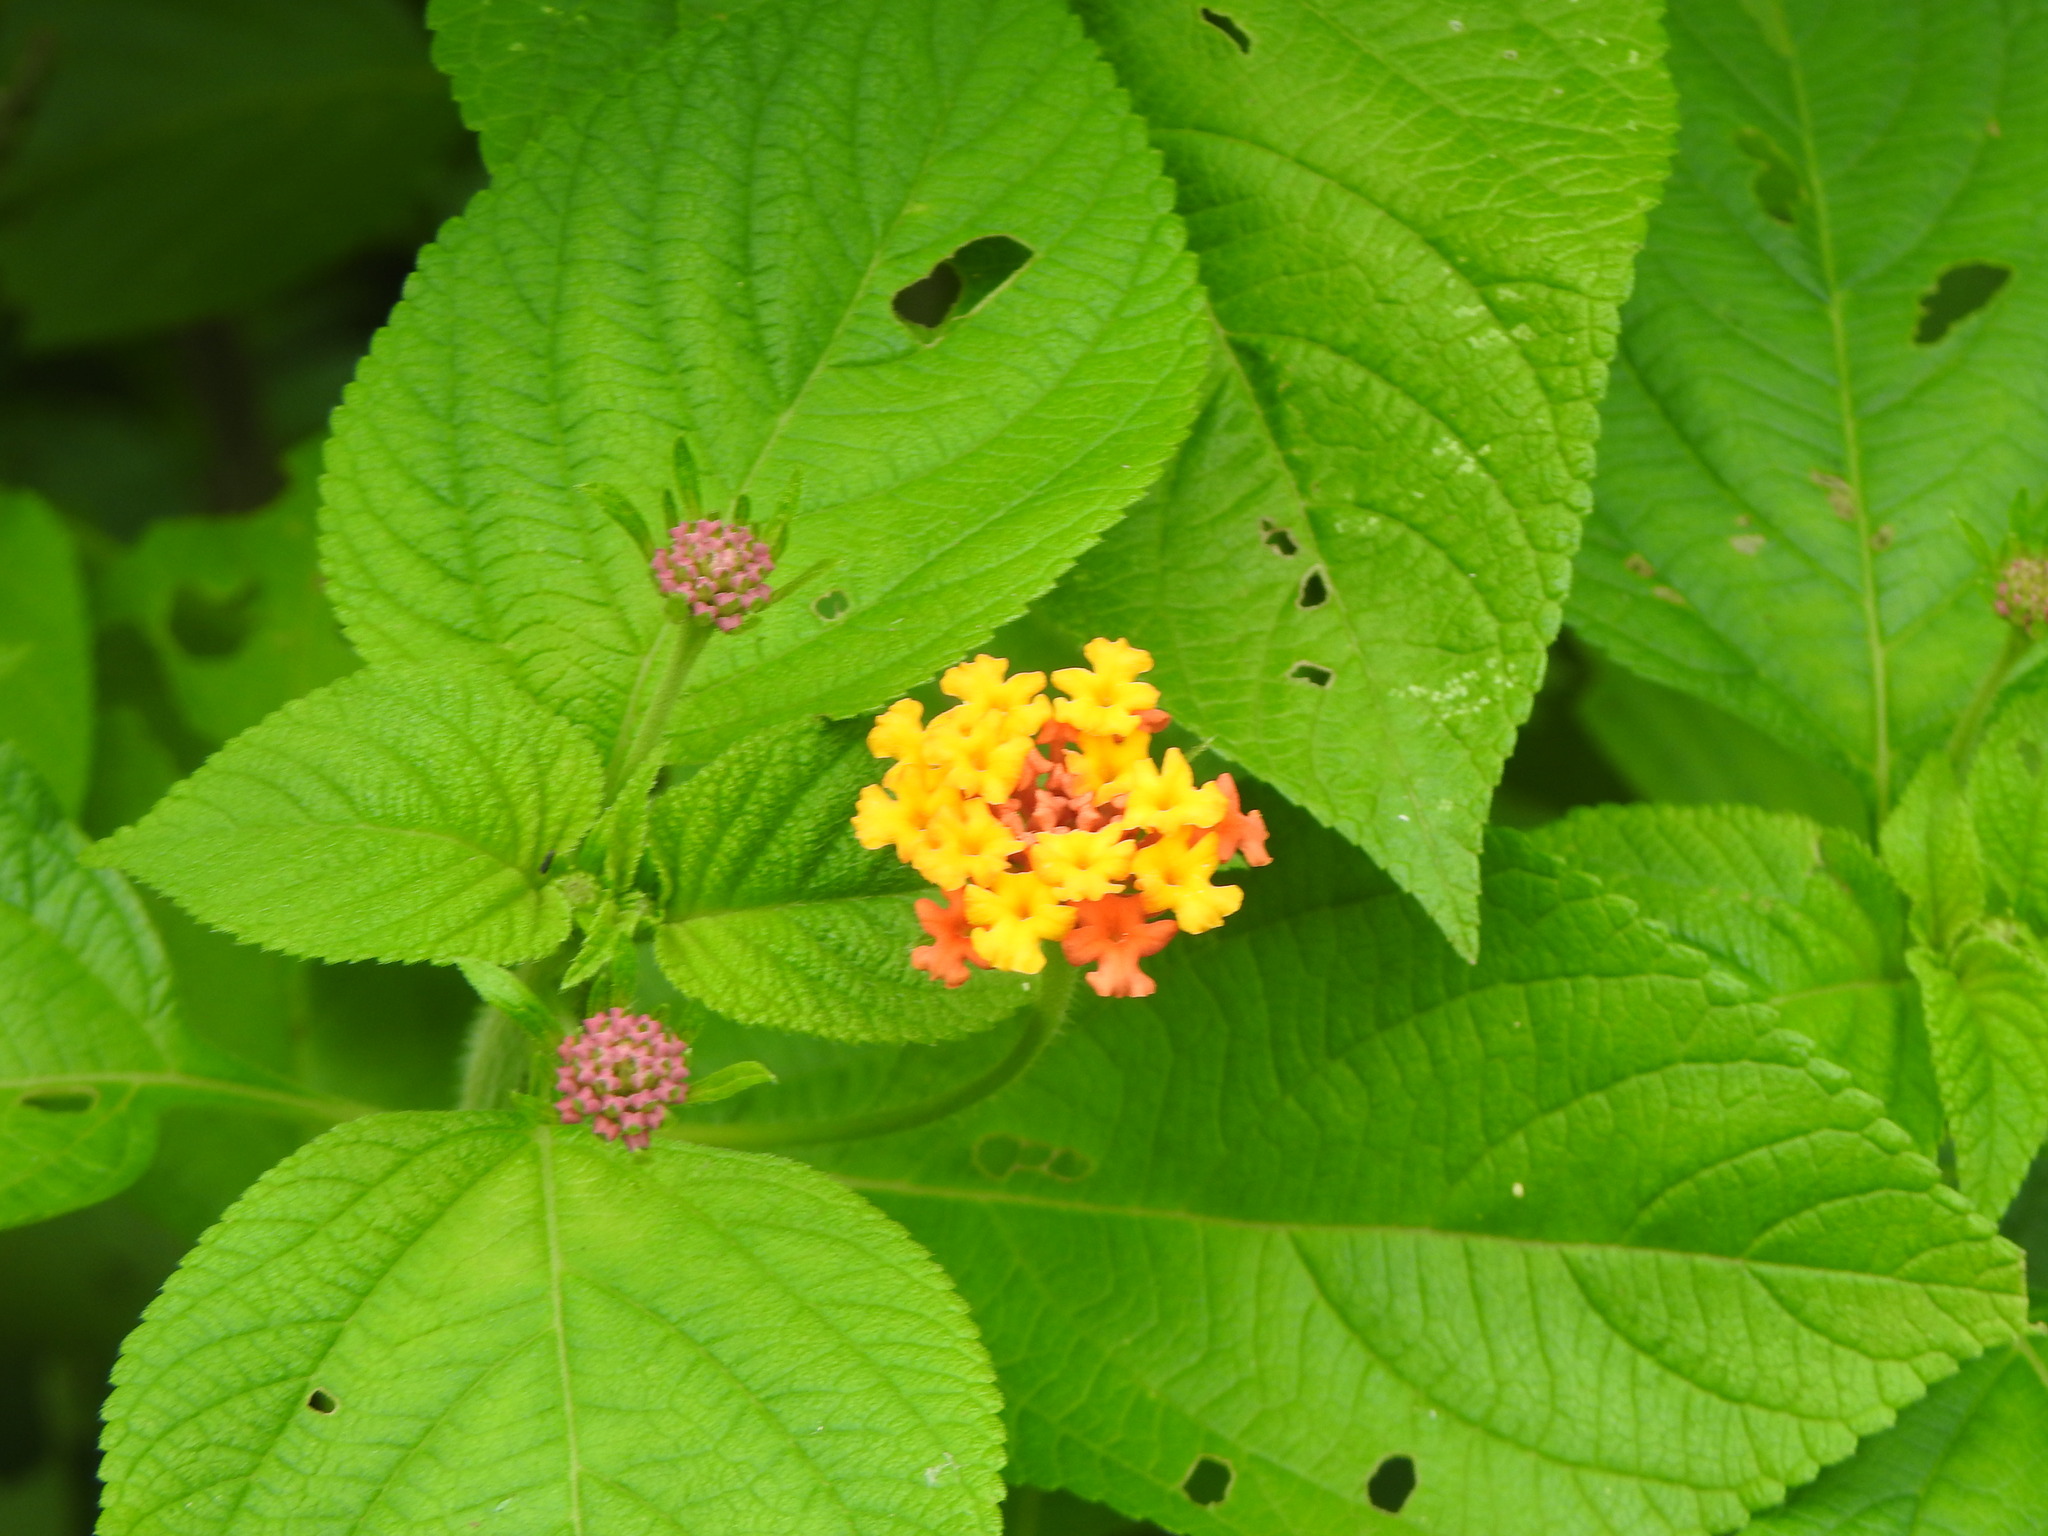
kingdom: Plantae
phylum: Tracheophyta
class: Magnoliopsida
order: Lamiales
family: Verbenaceae
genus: Lantana
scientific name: Lantana camara
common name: Lantana
